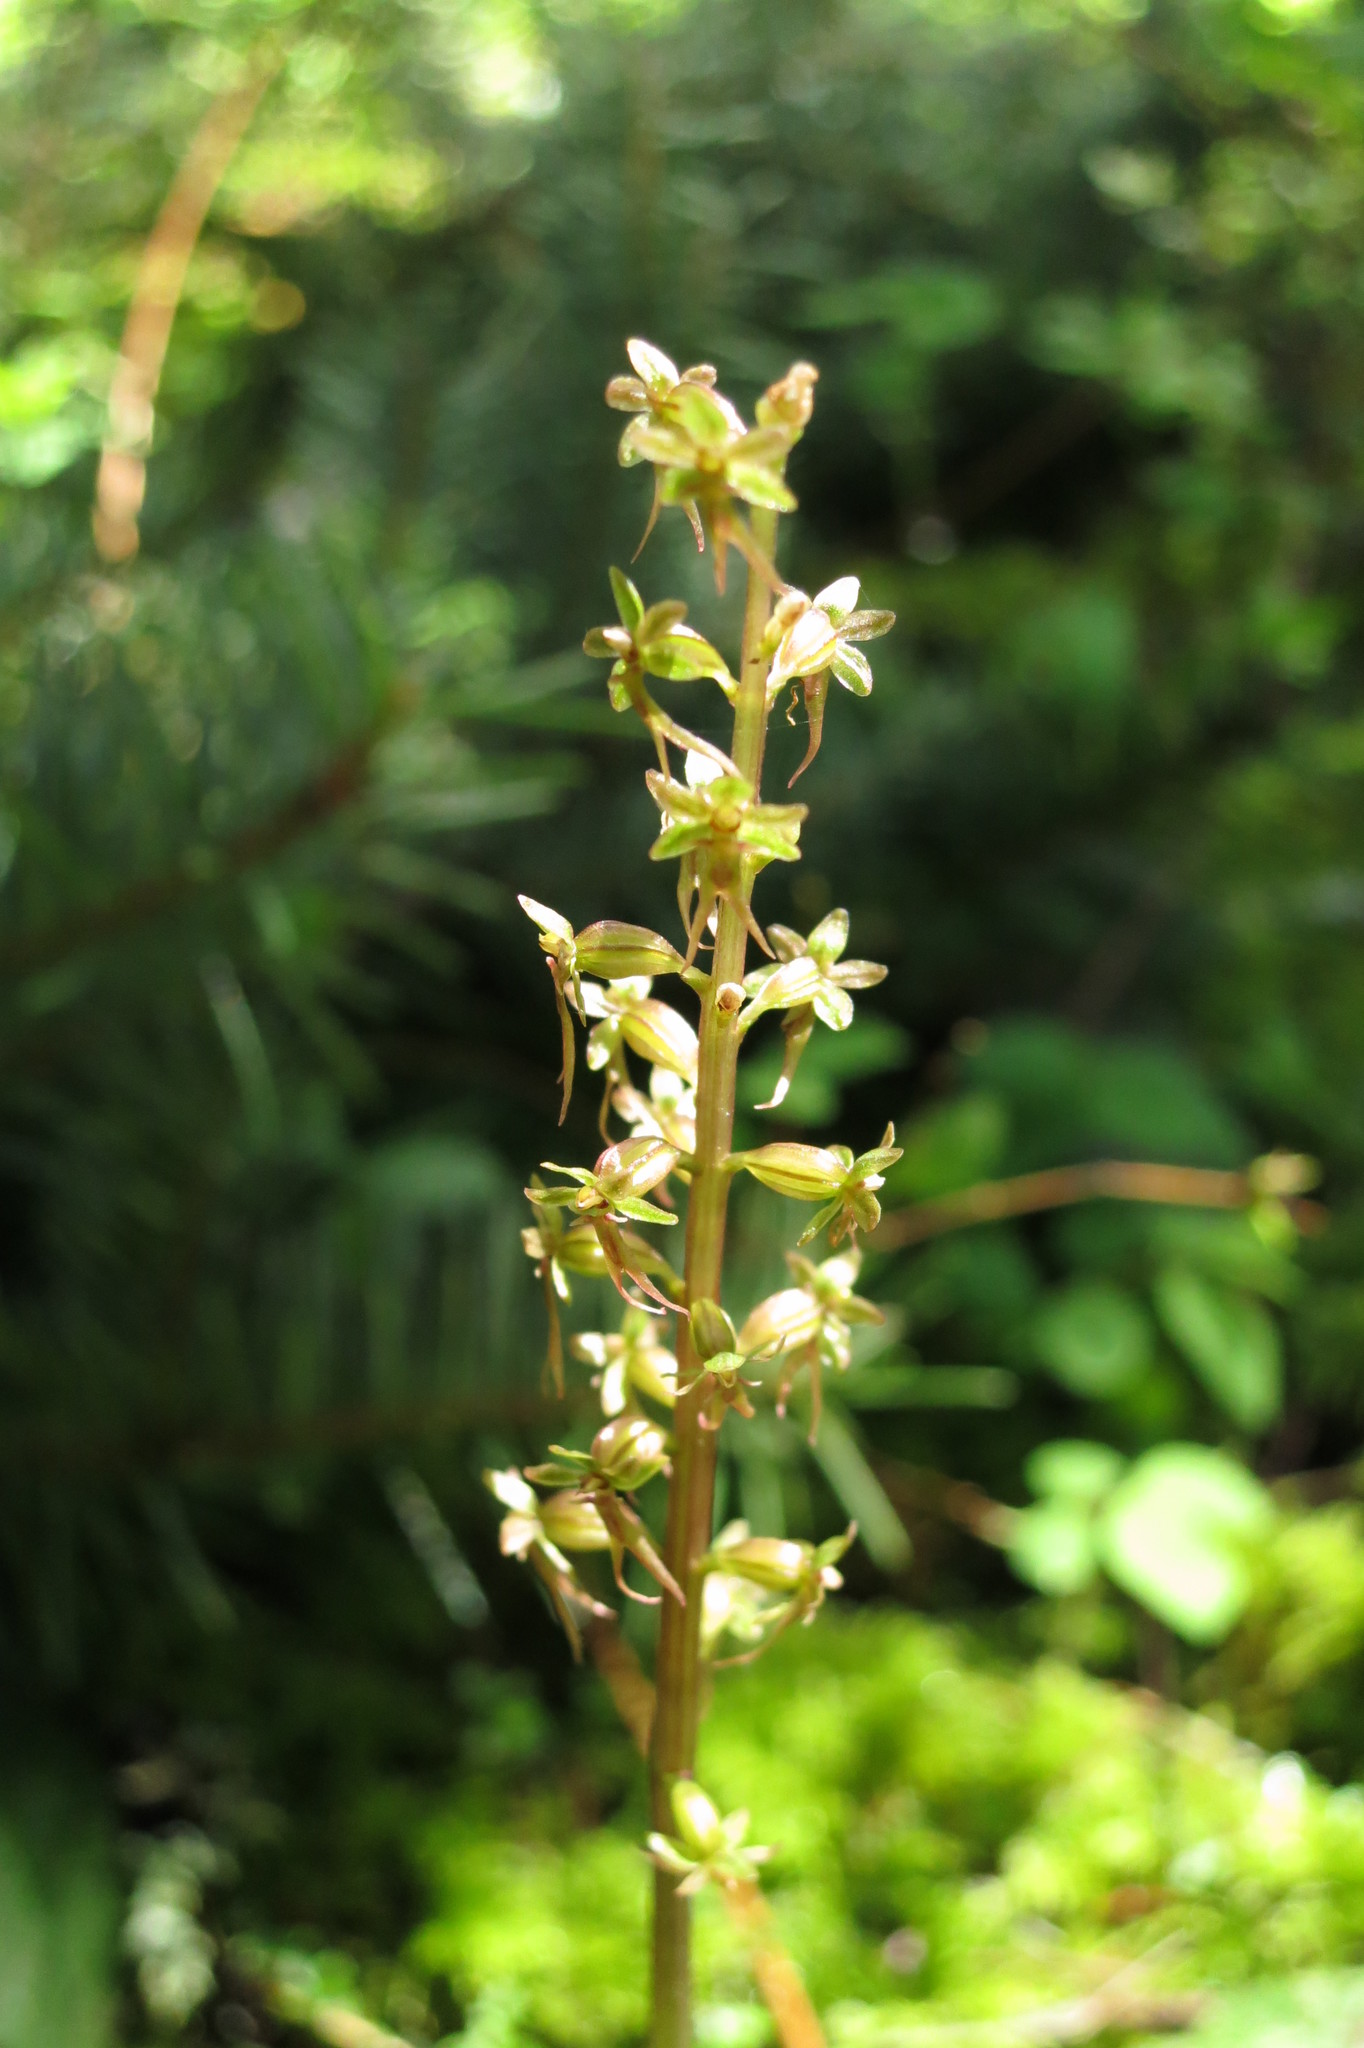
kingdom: Plantae
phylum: Tracheophyta
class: Liliopsida
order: Asparagales
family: Orchidaceae
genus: Neottia
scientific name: Neottia cordata
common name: Lesser twayblade
